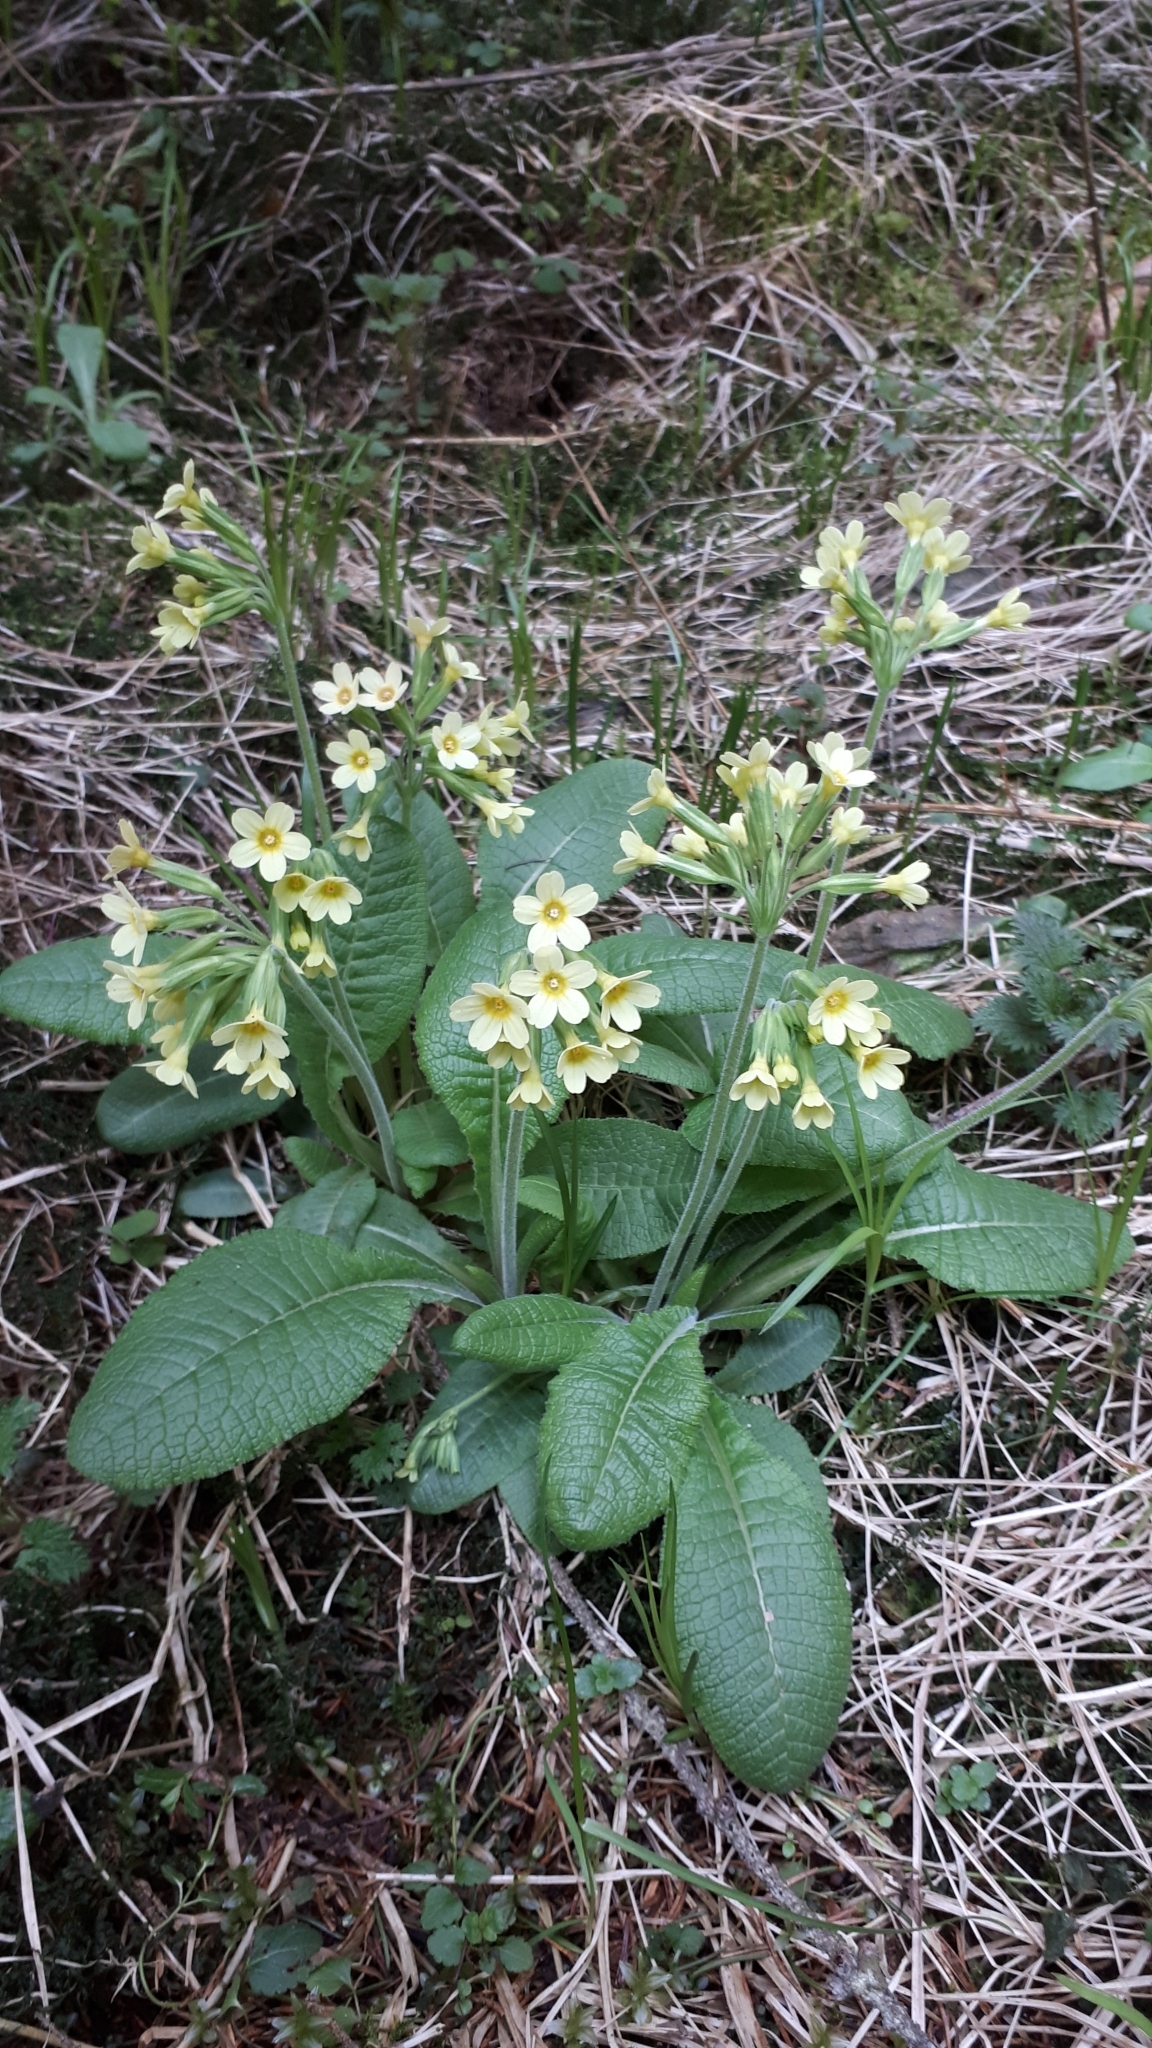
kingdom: Plantae
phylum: Tracheophyta
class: Magnoliopsida
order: Ericales
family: Primulaceae
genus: Primula
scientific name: Primula elatior
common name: Oxlip
